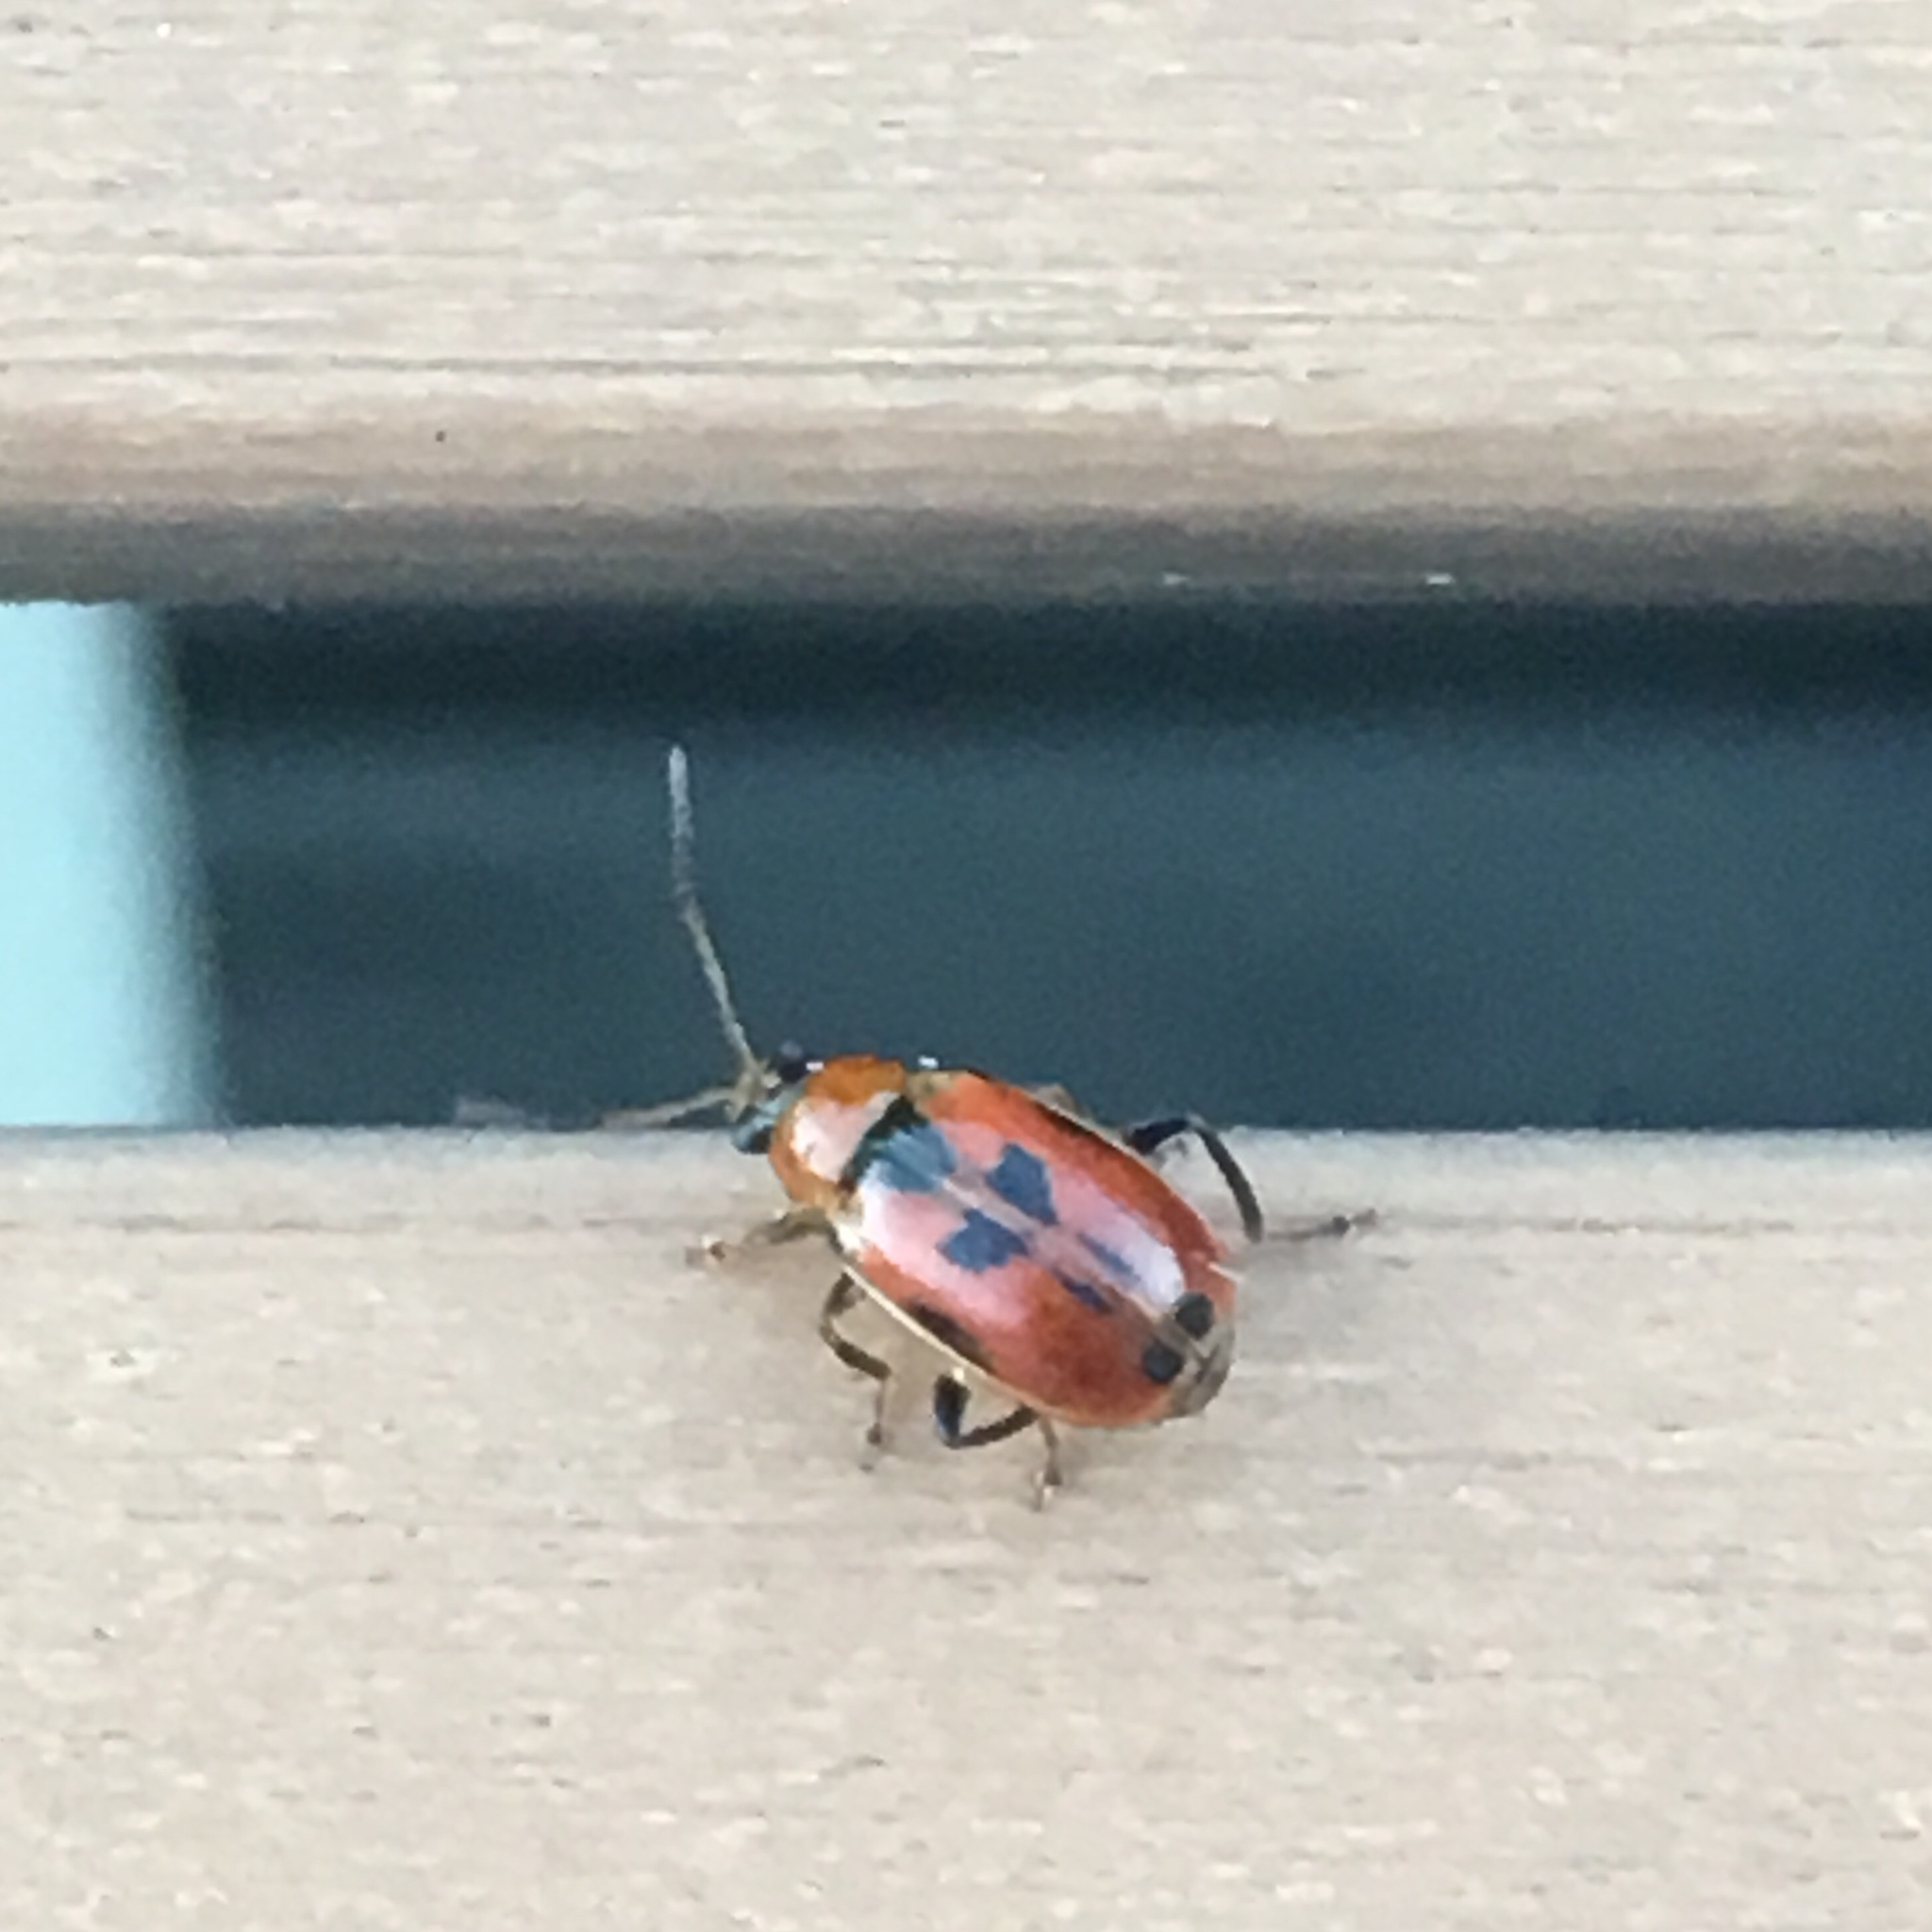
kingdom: Animalia
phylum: Arthropoda
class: Insecta
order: Coleoptera
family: Chrysomelidae
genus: Cerotoma
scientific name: Cerotoma trifurcata
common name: Bean leaf beetle
